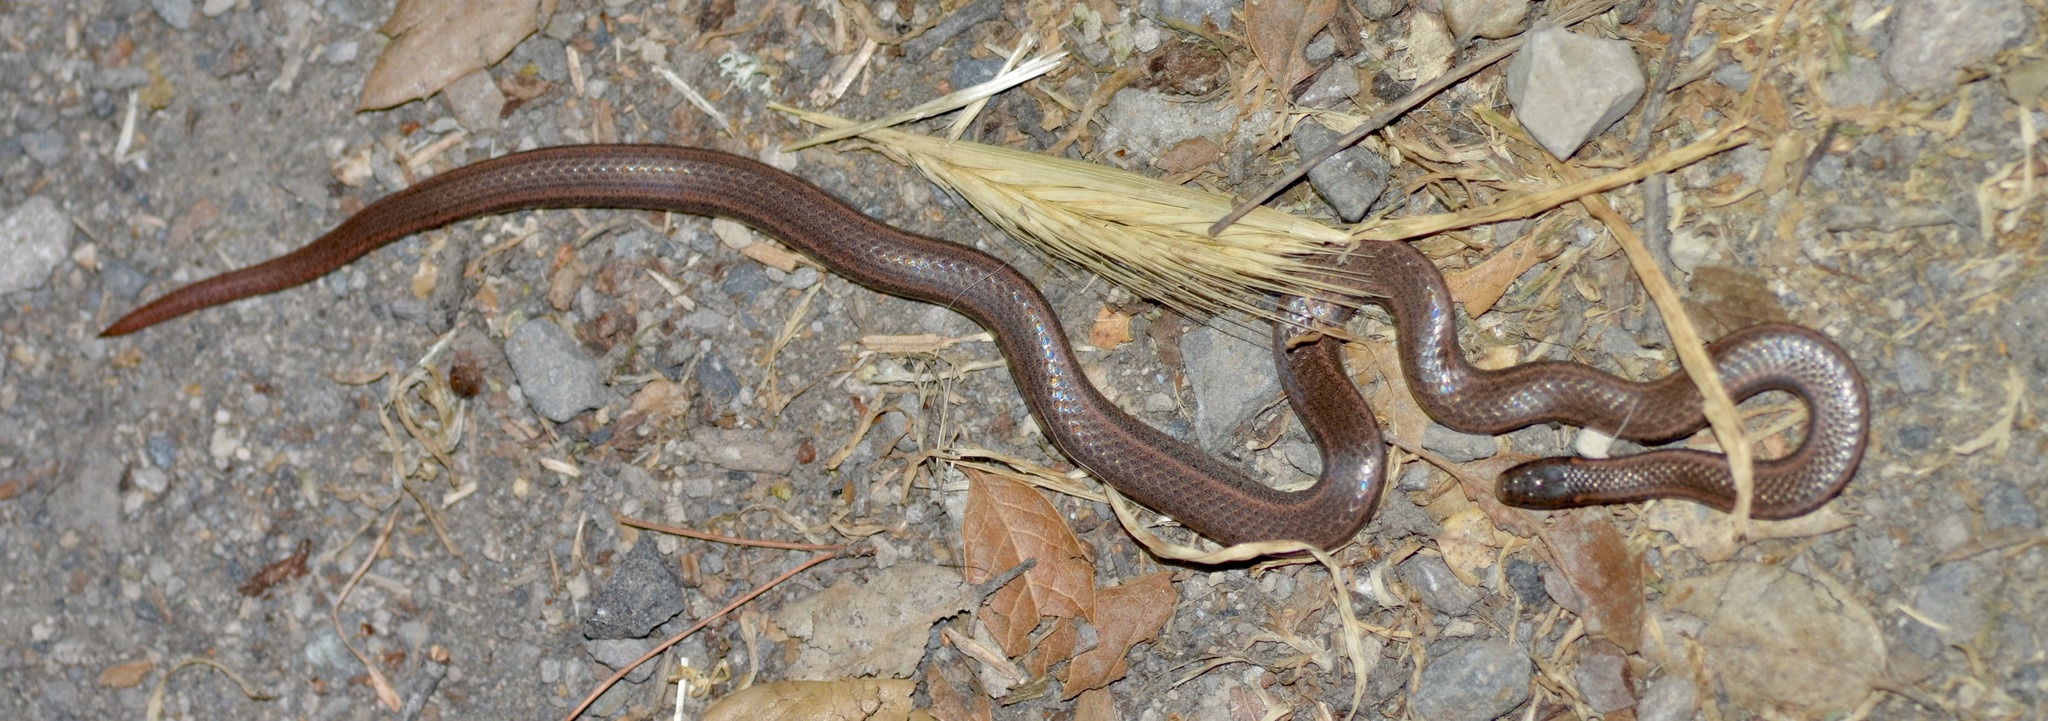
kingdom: Animalia
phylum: Chordata
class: Squamata
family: Colubridae
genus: Contia
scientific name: Contia tenuis
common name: Sharptail snake
